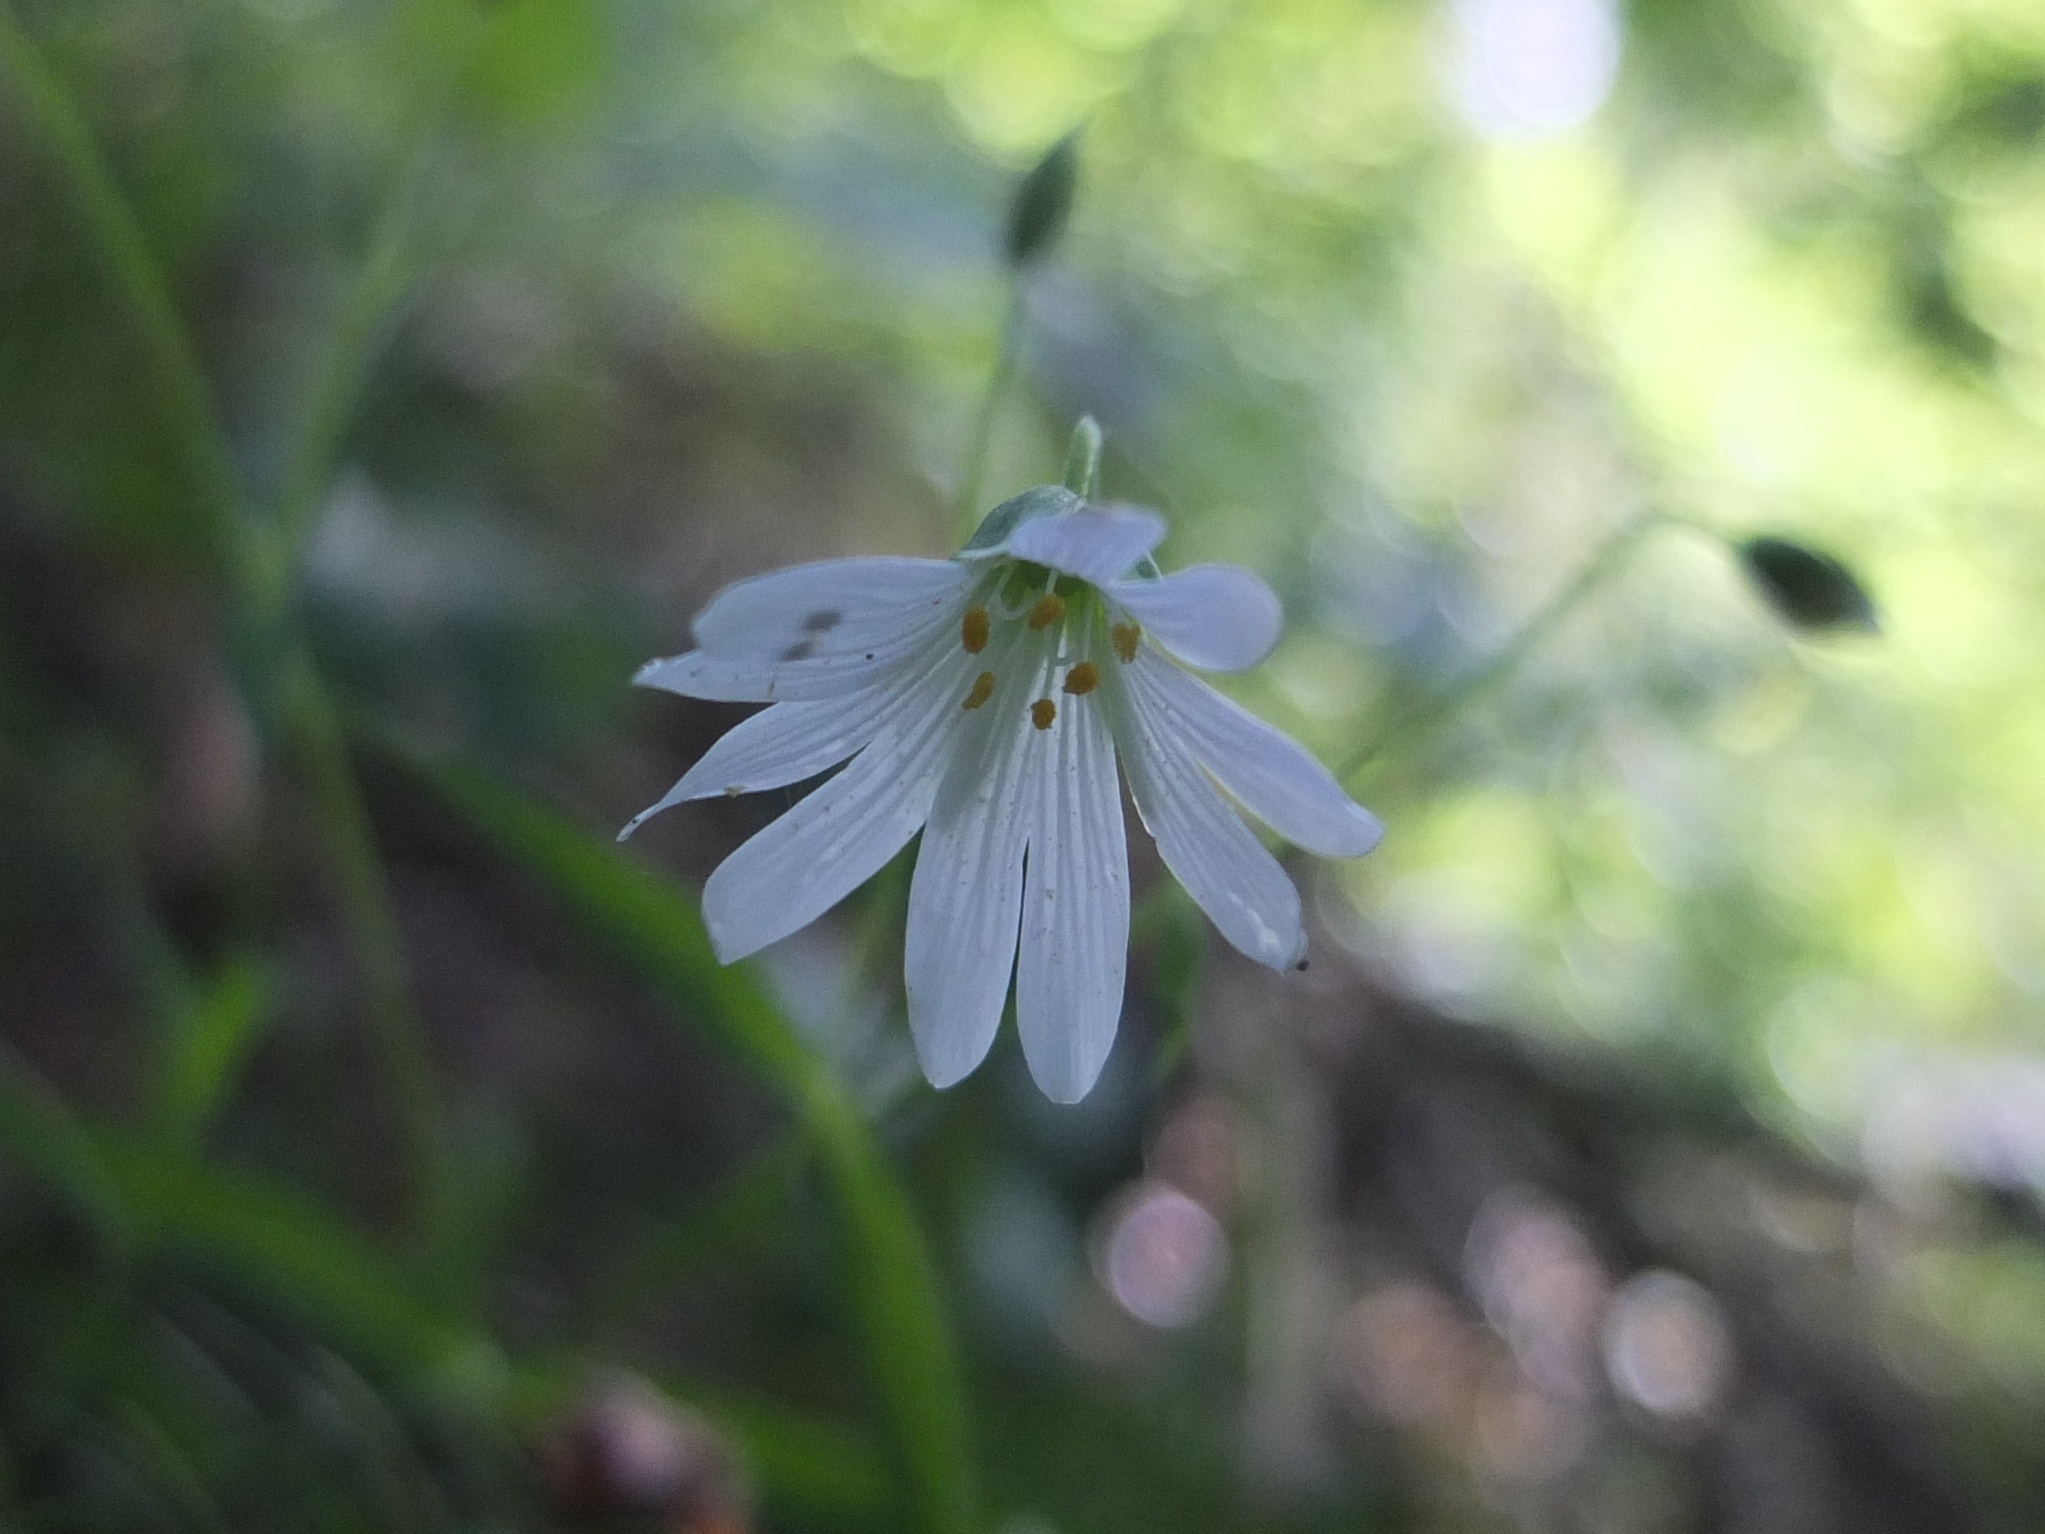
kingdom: Plantae
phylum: Tracheophyta
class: Magnoliopsida
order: Caryophyllales
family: Caryophyllaceae
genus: Rabelera
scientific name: Rabelera holostea
